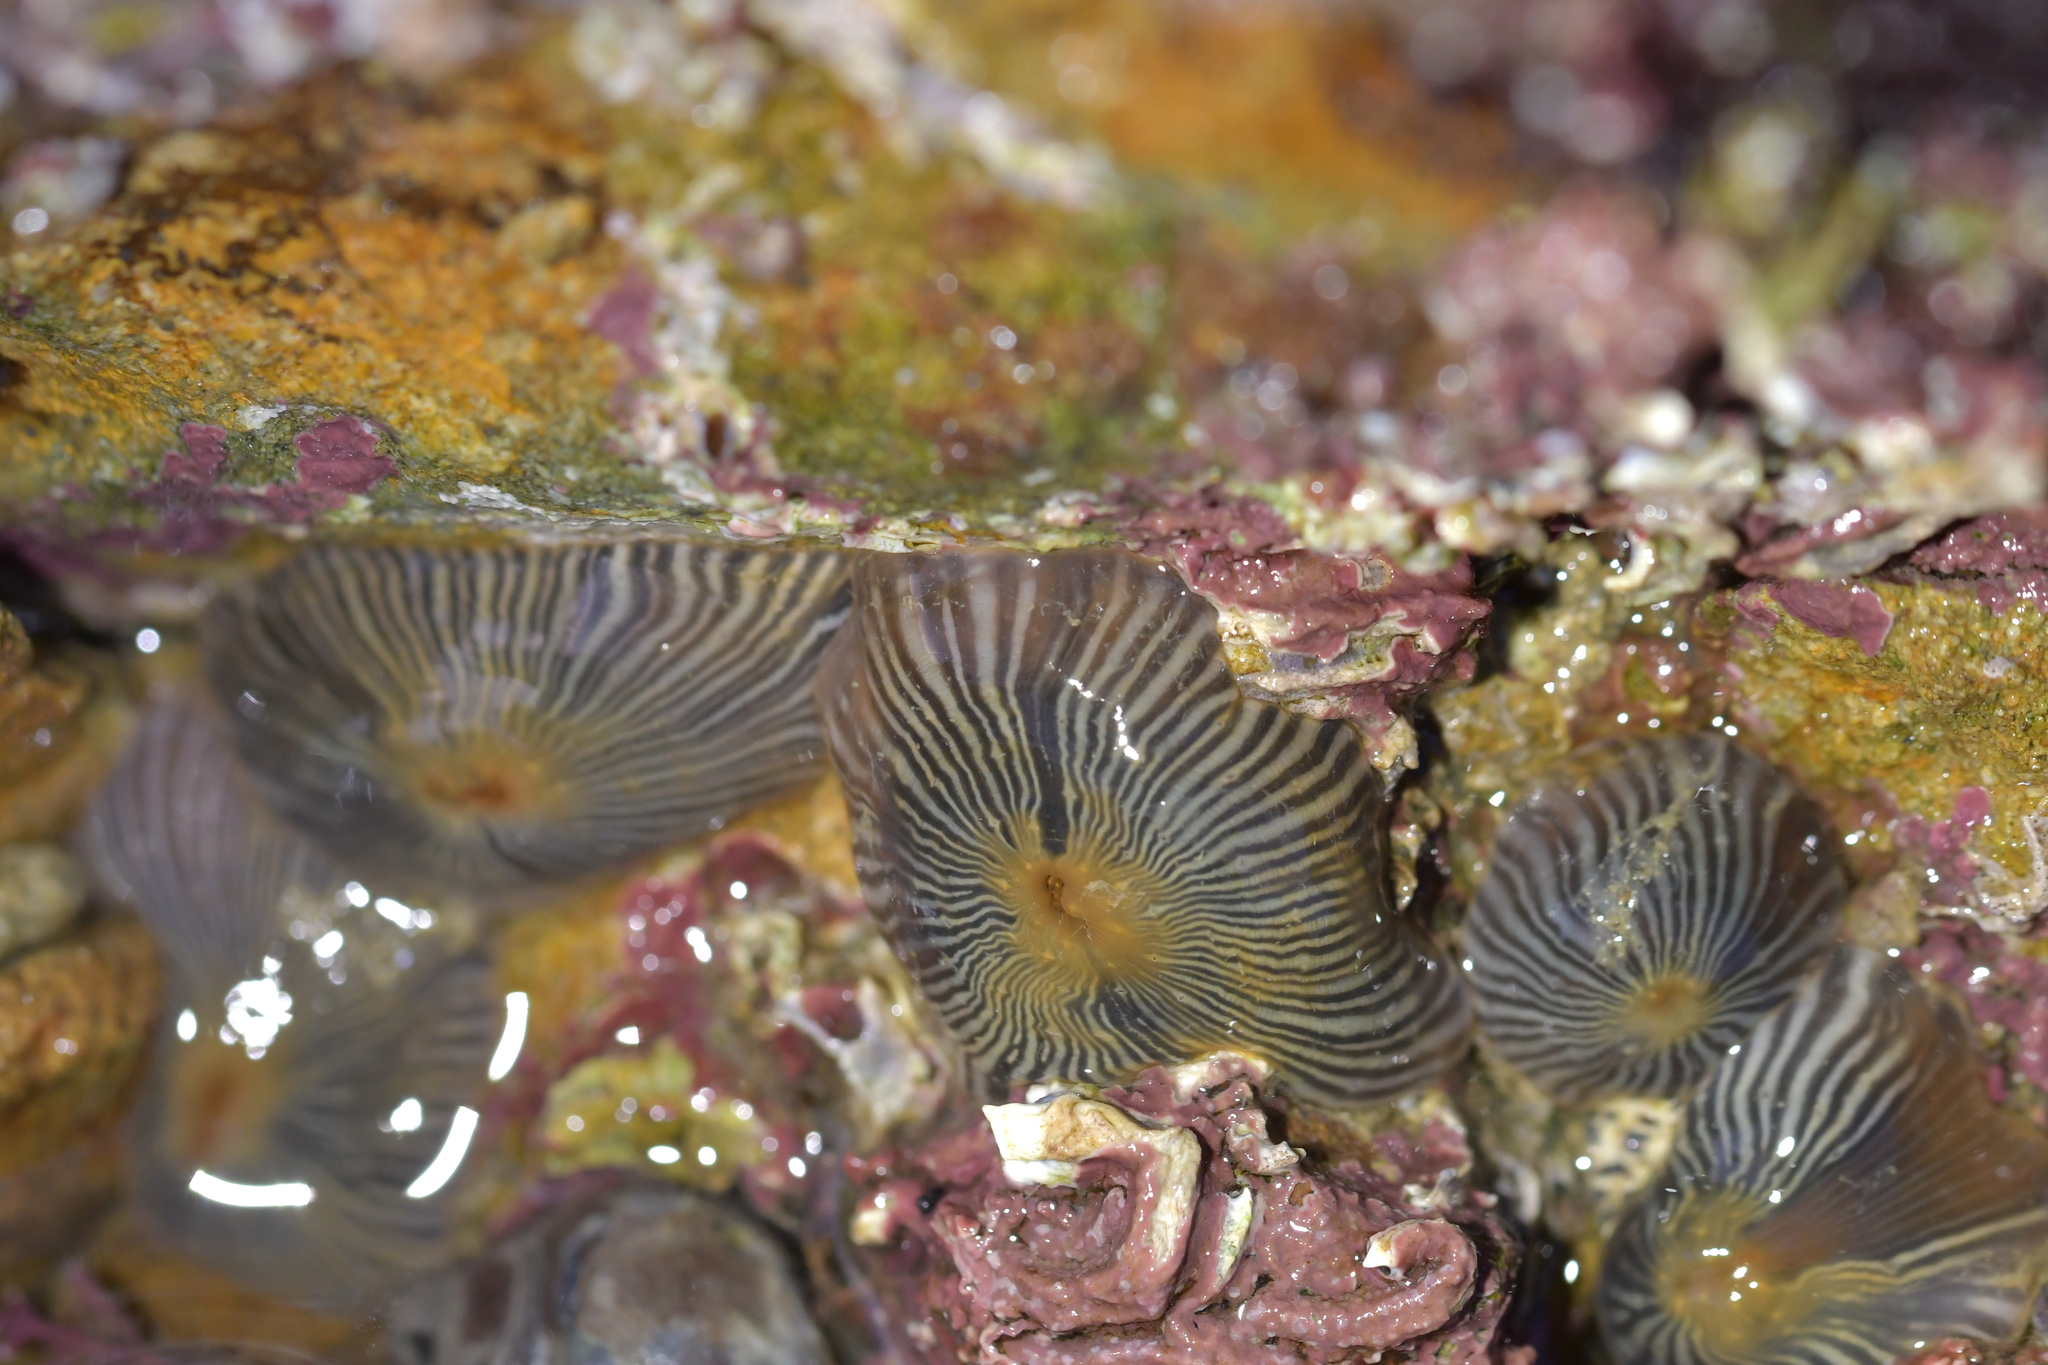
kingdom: Animalia
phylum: Cnidaria
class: Anthozoa
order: Actiniaria
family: Diadumenidae
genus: Diadumene
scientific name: Diadumene neozelanica
